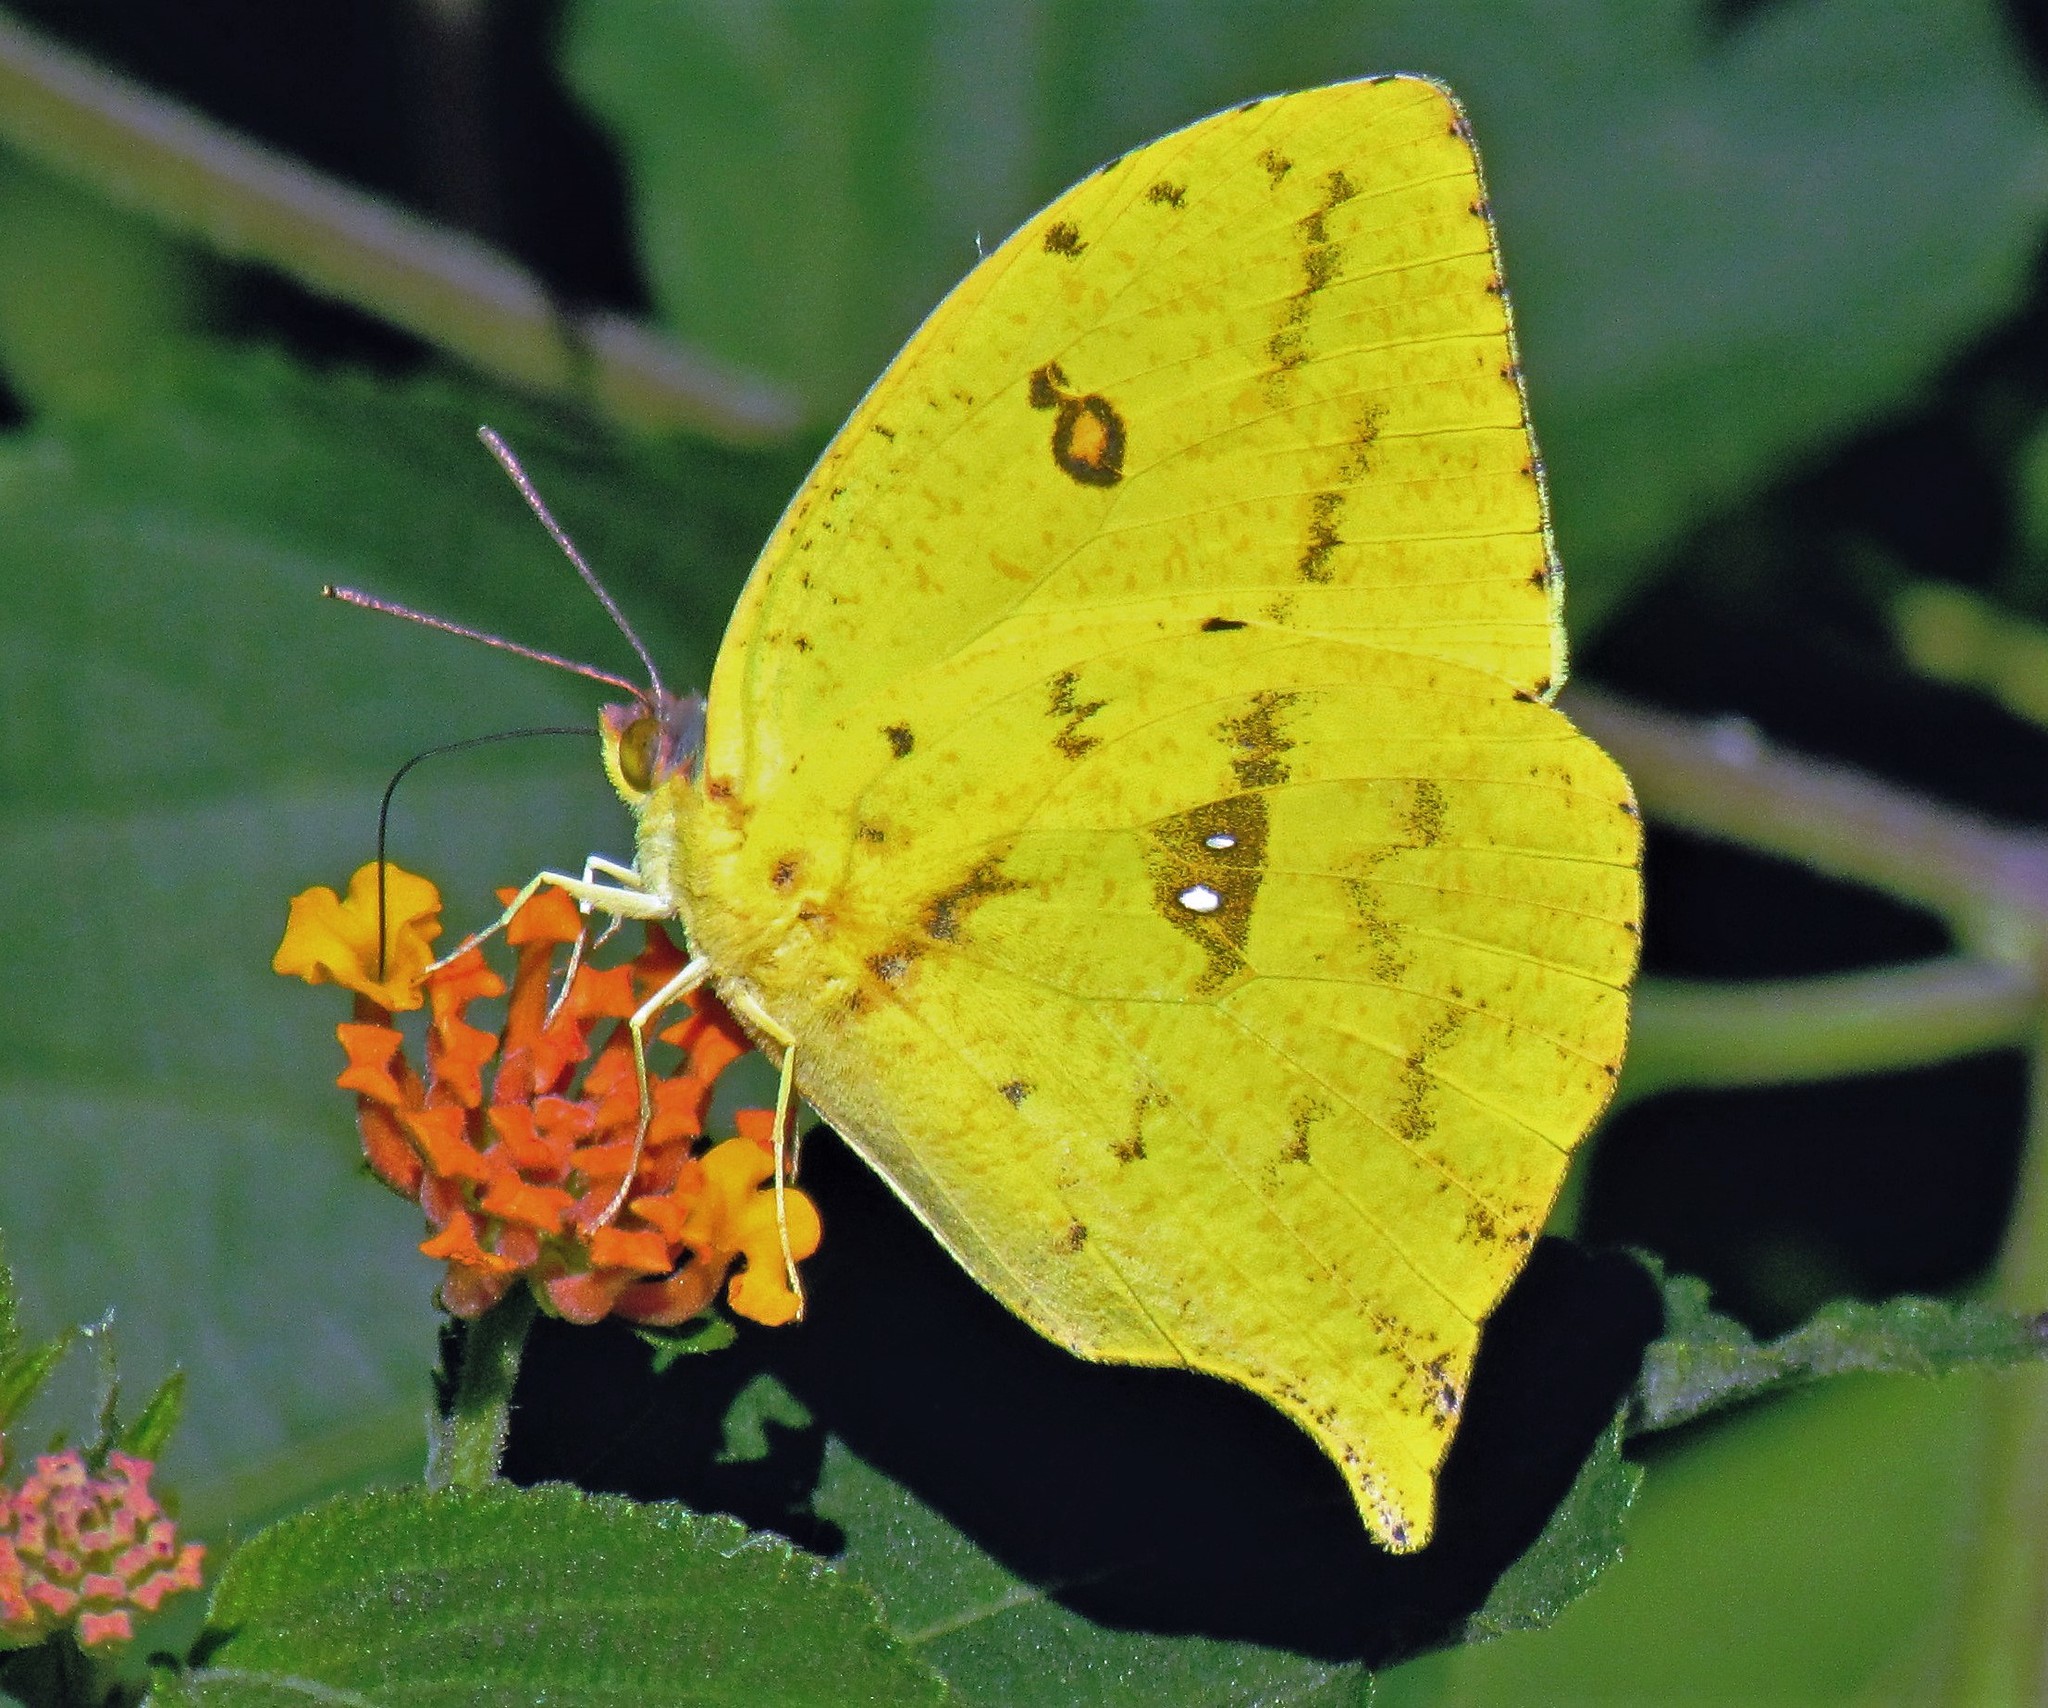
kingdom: Animalia
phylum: Arthropoda
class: Insecta
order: Lepidoptera
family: Pieridae
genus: Phoebis
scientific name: Phoebis neocypris
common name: Tailed sulphur
